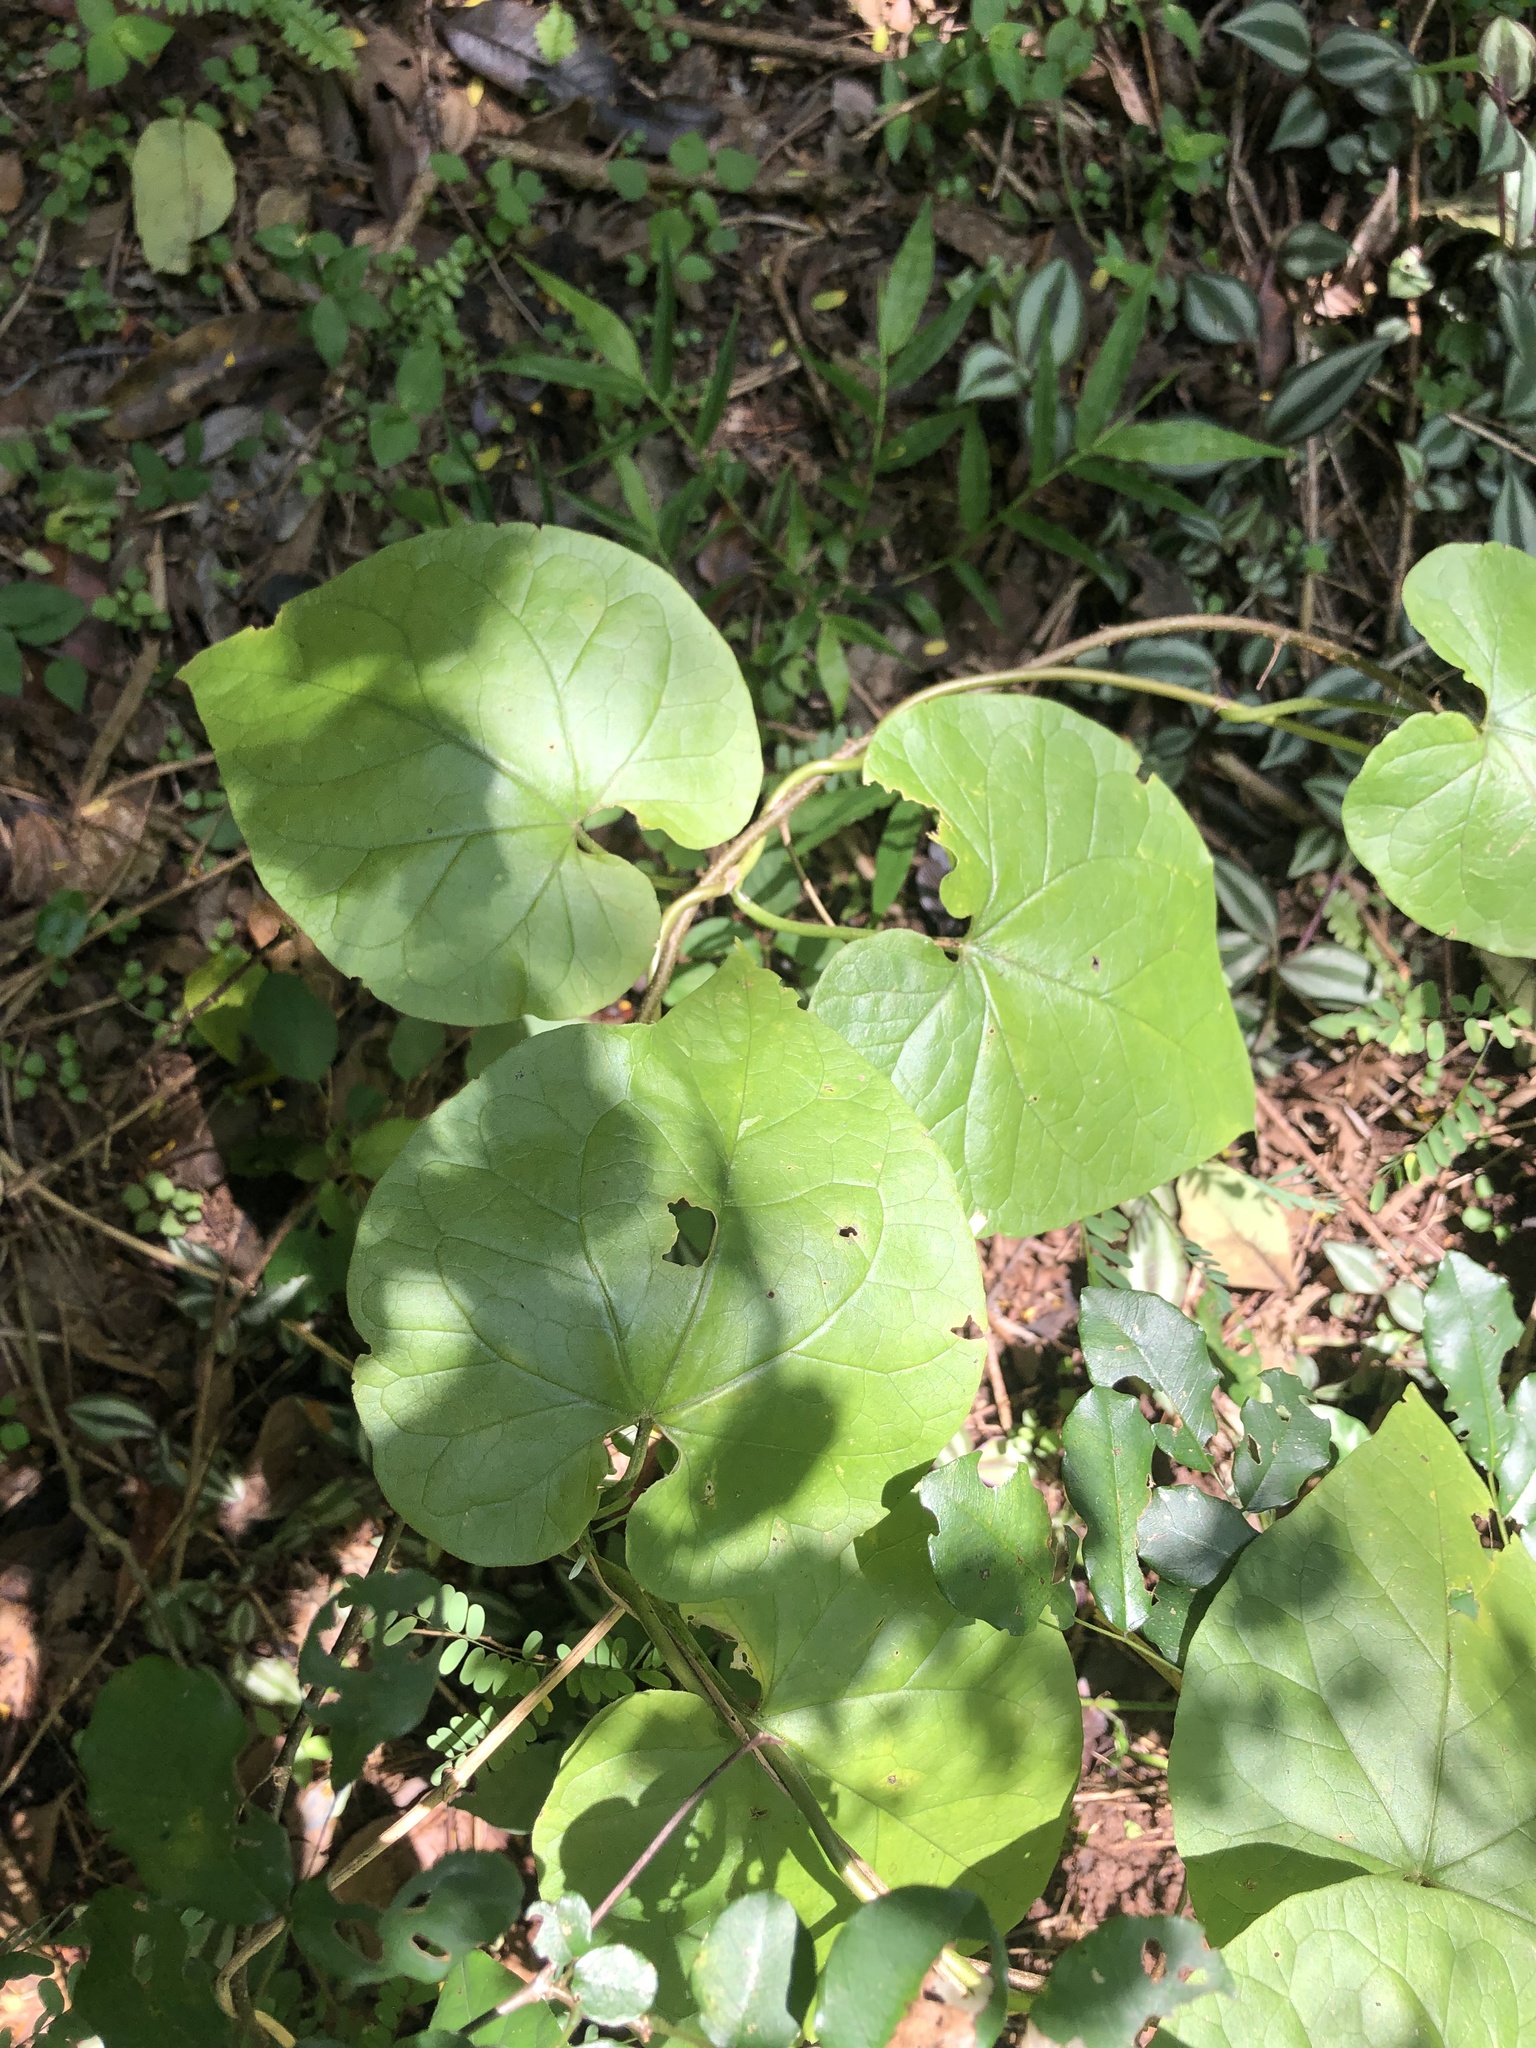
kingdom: Plantae
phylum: Tracheophyta
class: Magnoliopsida
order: Gentianales
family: Apocynaceae
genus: Riocreuxia
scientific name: Riocreuxia torulosa
